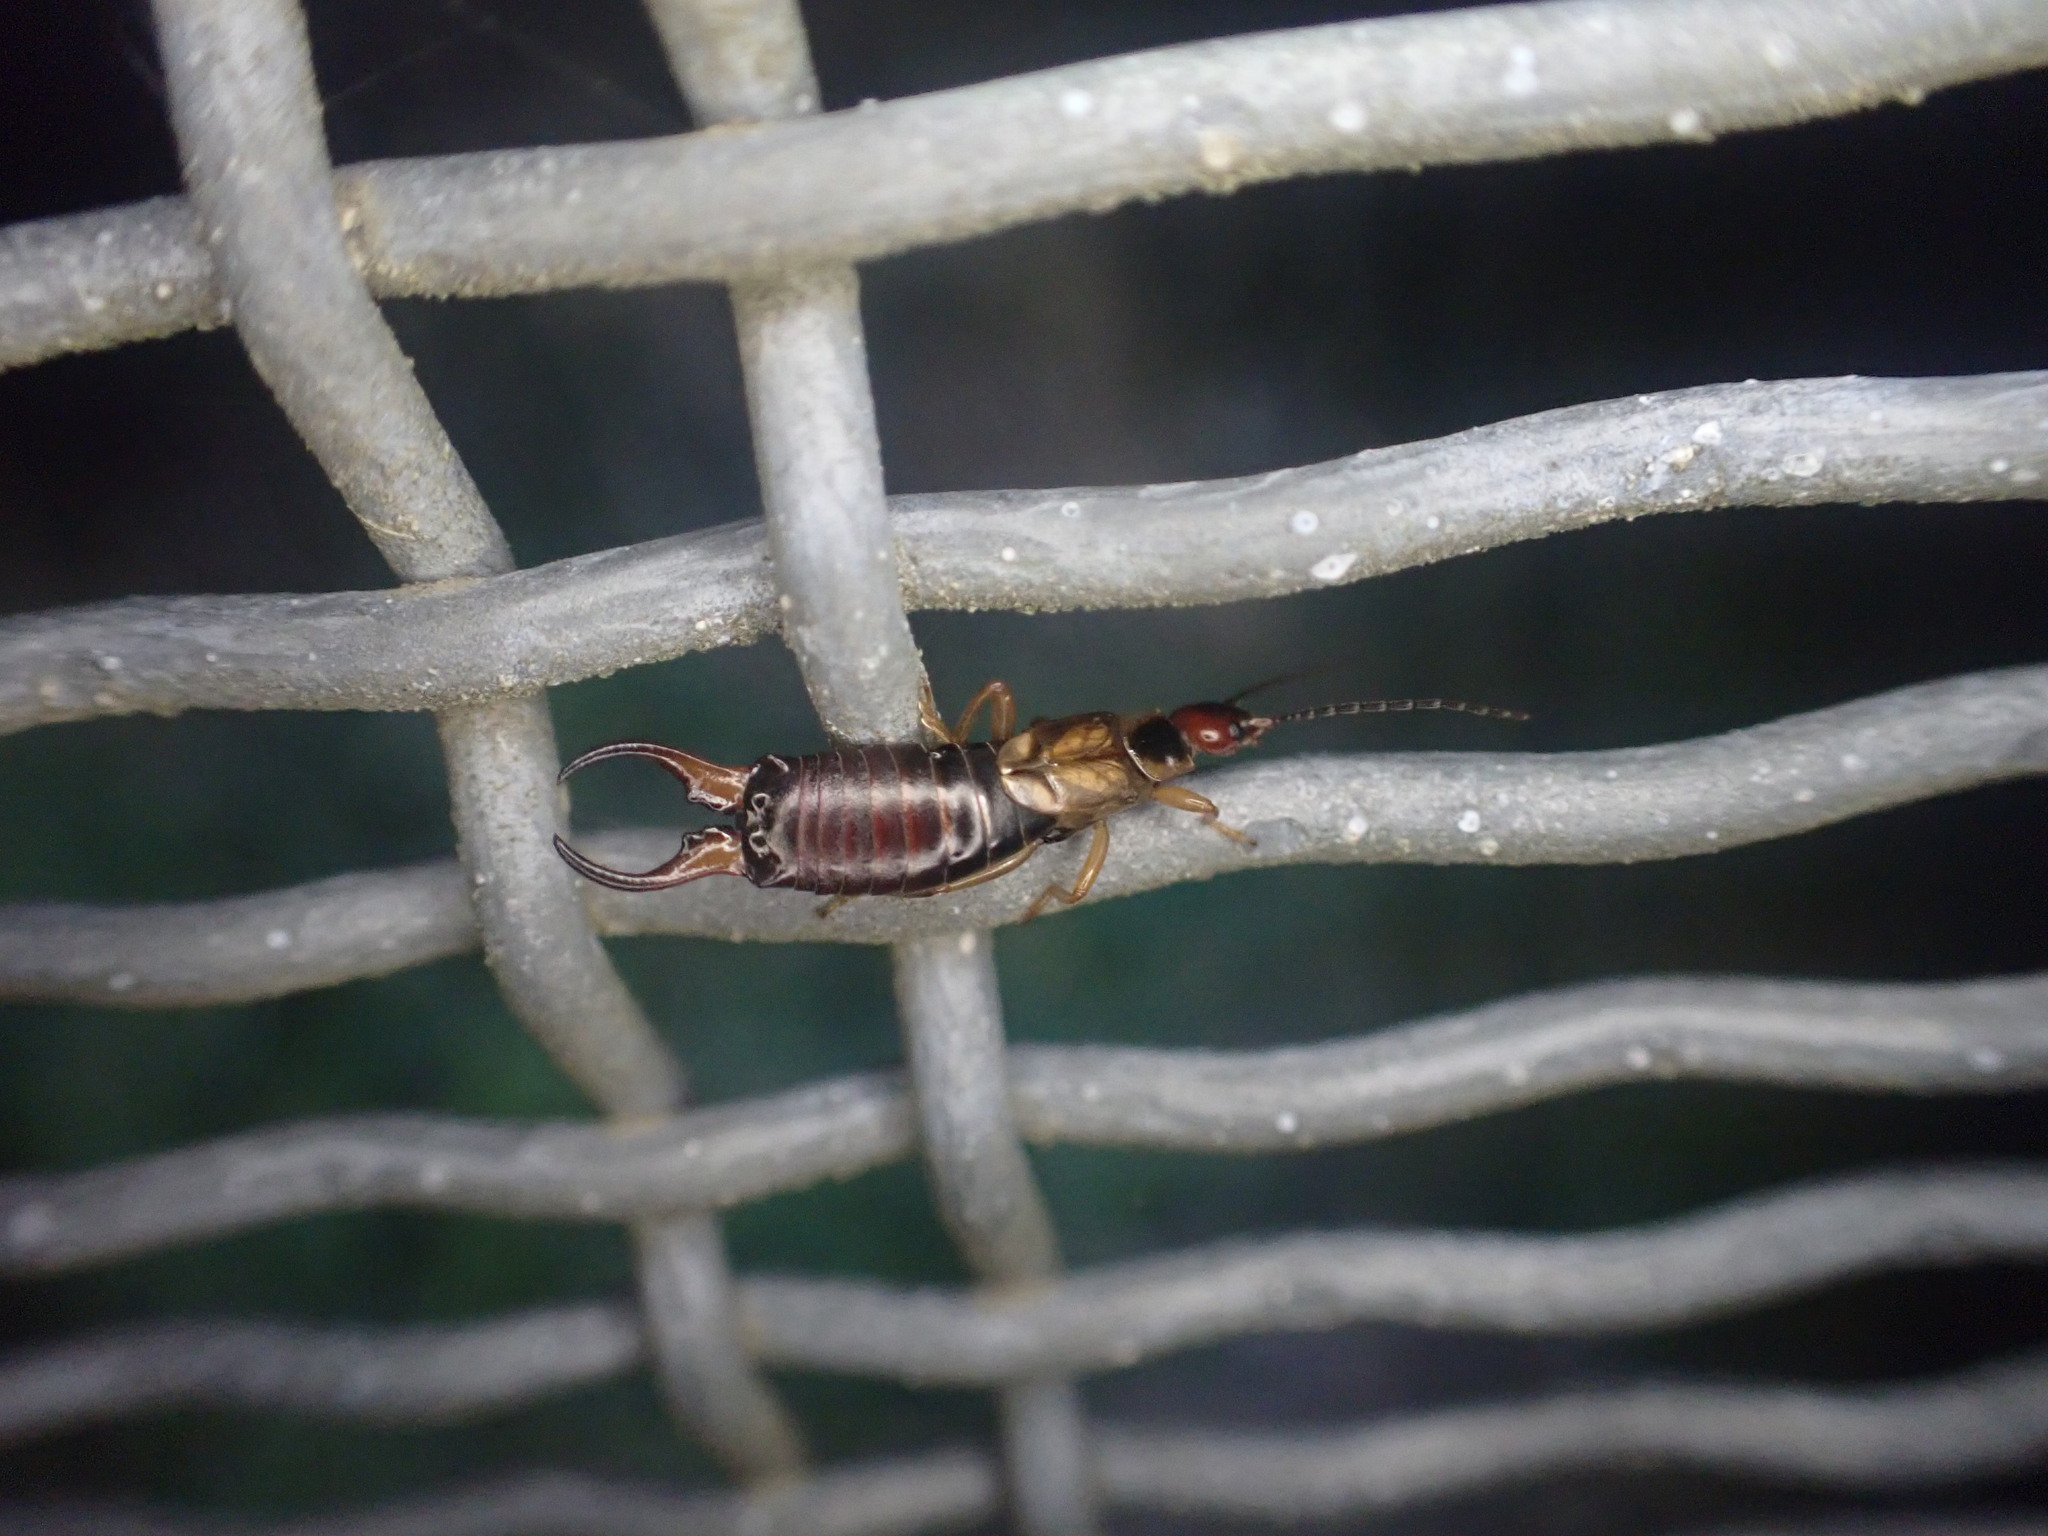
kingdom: Animalia
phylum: Arthropoda
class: Insecta
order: Dermaptera
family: Forficulidae
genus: Forficula
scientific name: Forficula dentata
